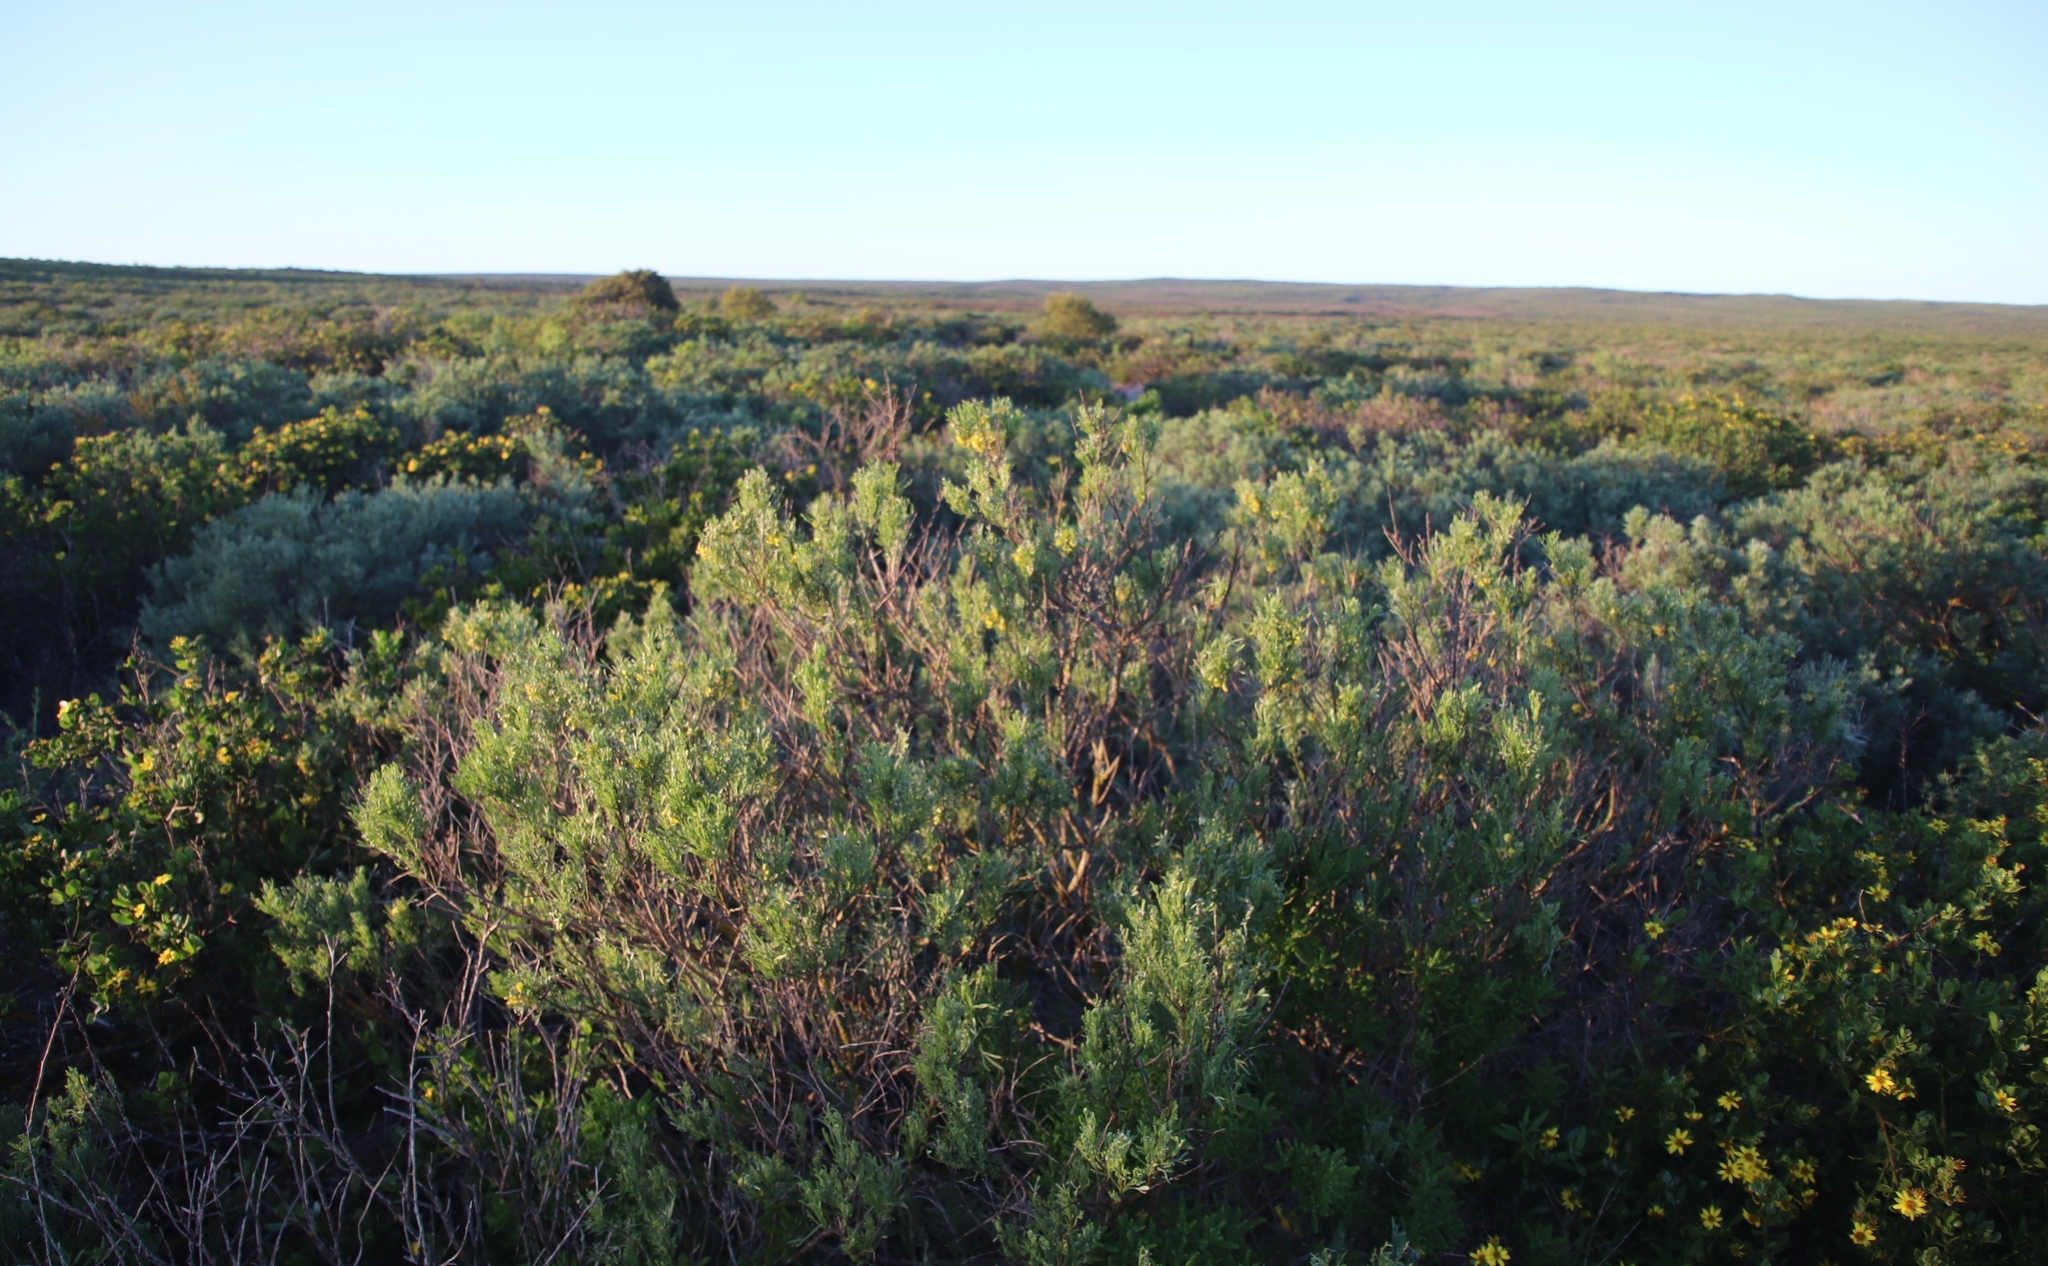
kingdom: Plantae
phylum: Tracheophyta
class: Magnoliopsida
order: Fabales
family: Fabaceae
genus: Calobota
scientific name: Calobota sericea
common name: Silver-pea
